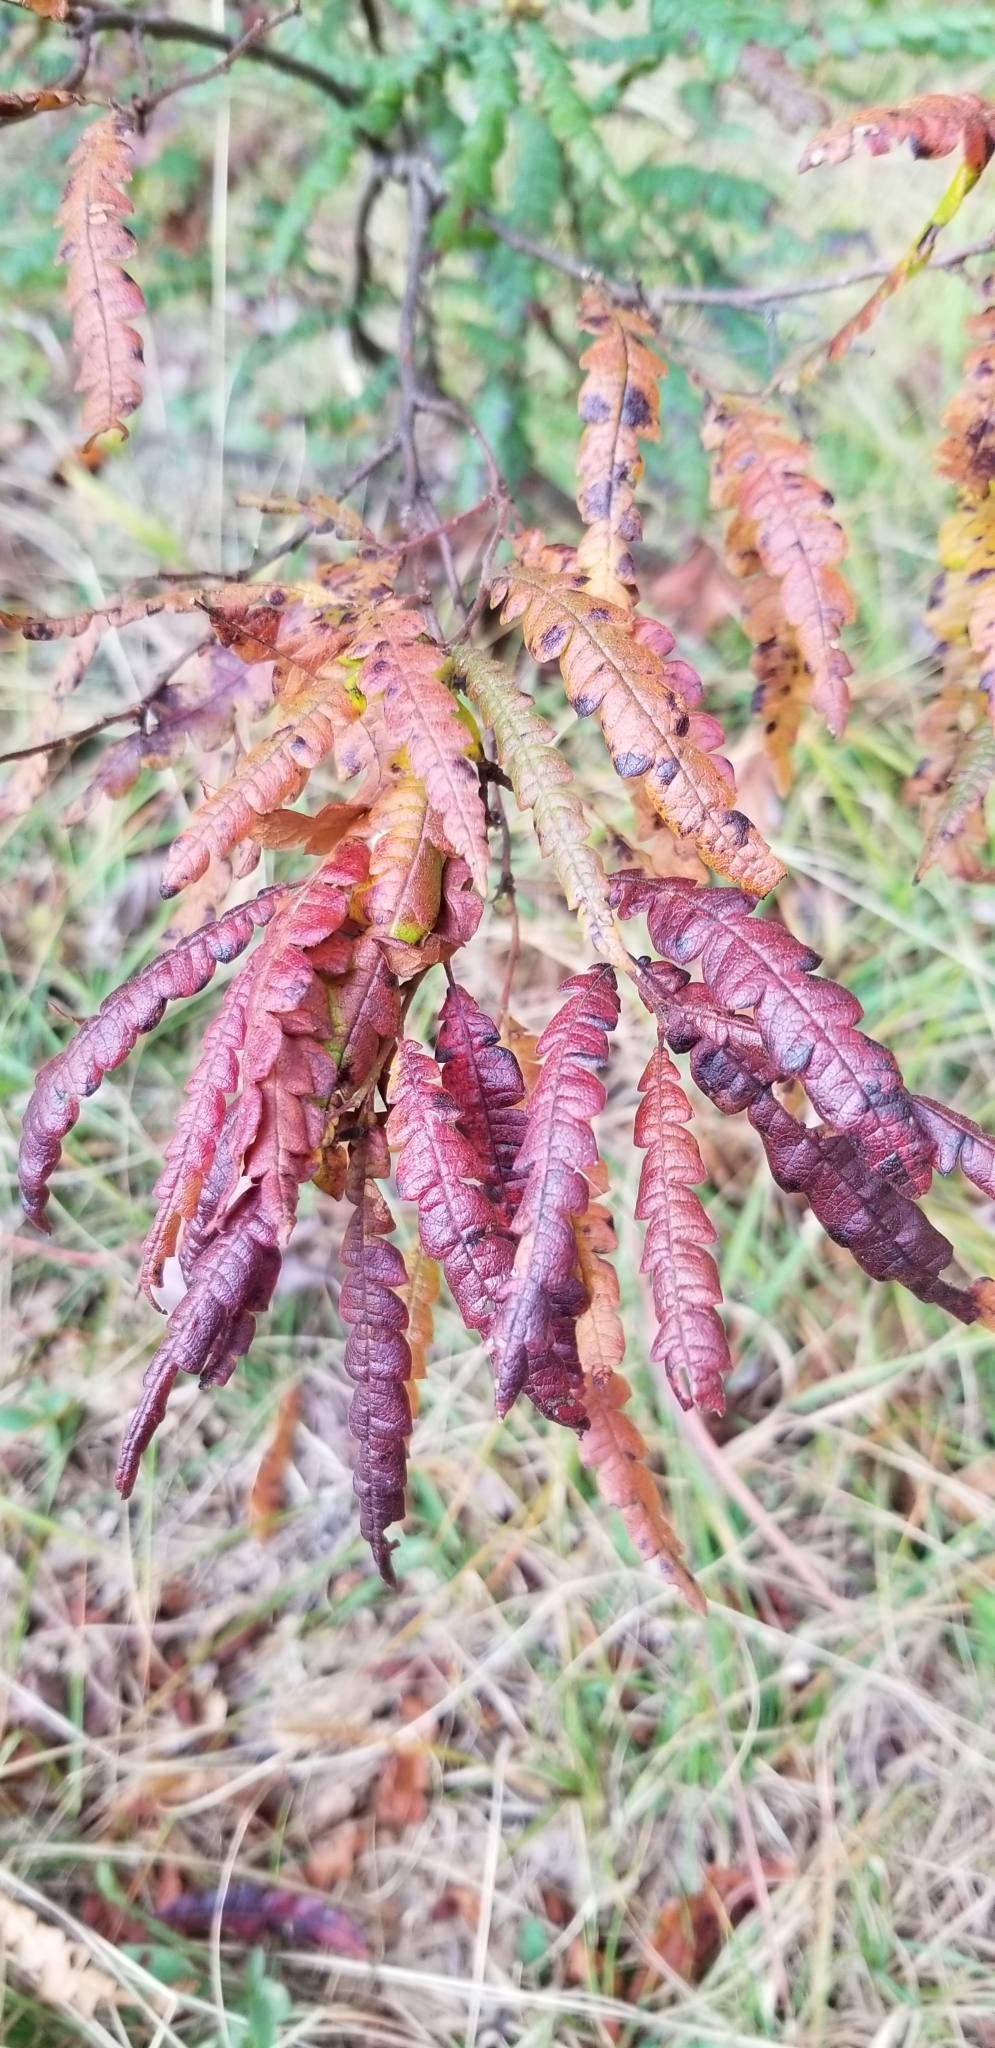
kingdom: Plantae
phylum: Tracheophyta
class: Magnoliopsida
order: Fagales
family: Myricaceae
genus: Comptonia
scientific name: Comptonia peregrina
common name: Sweet-fern
